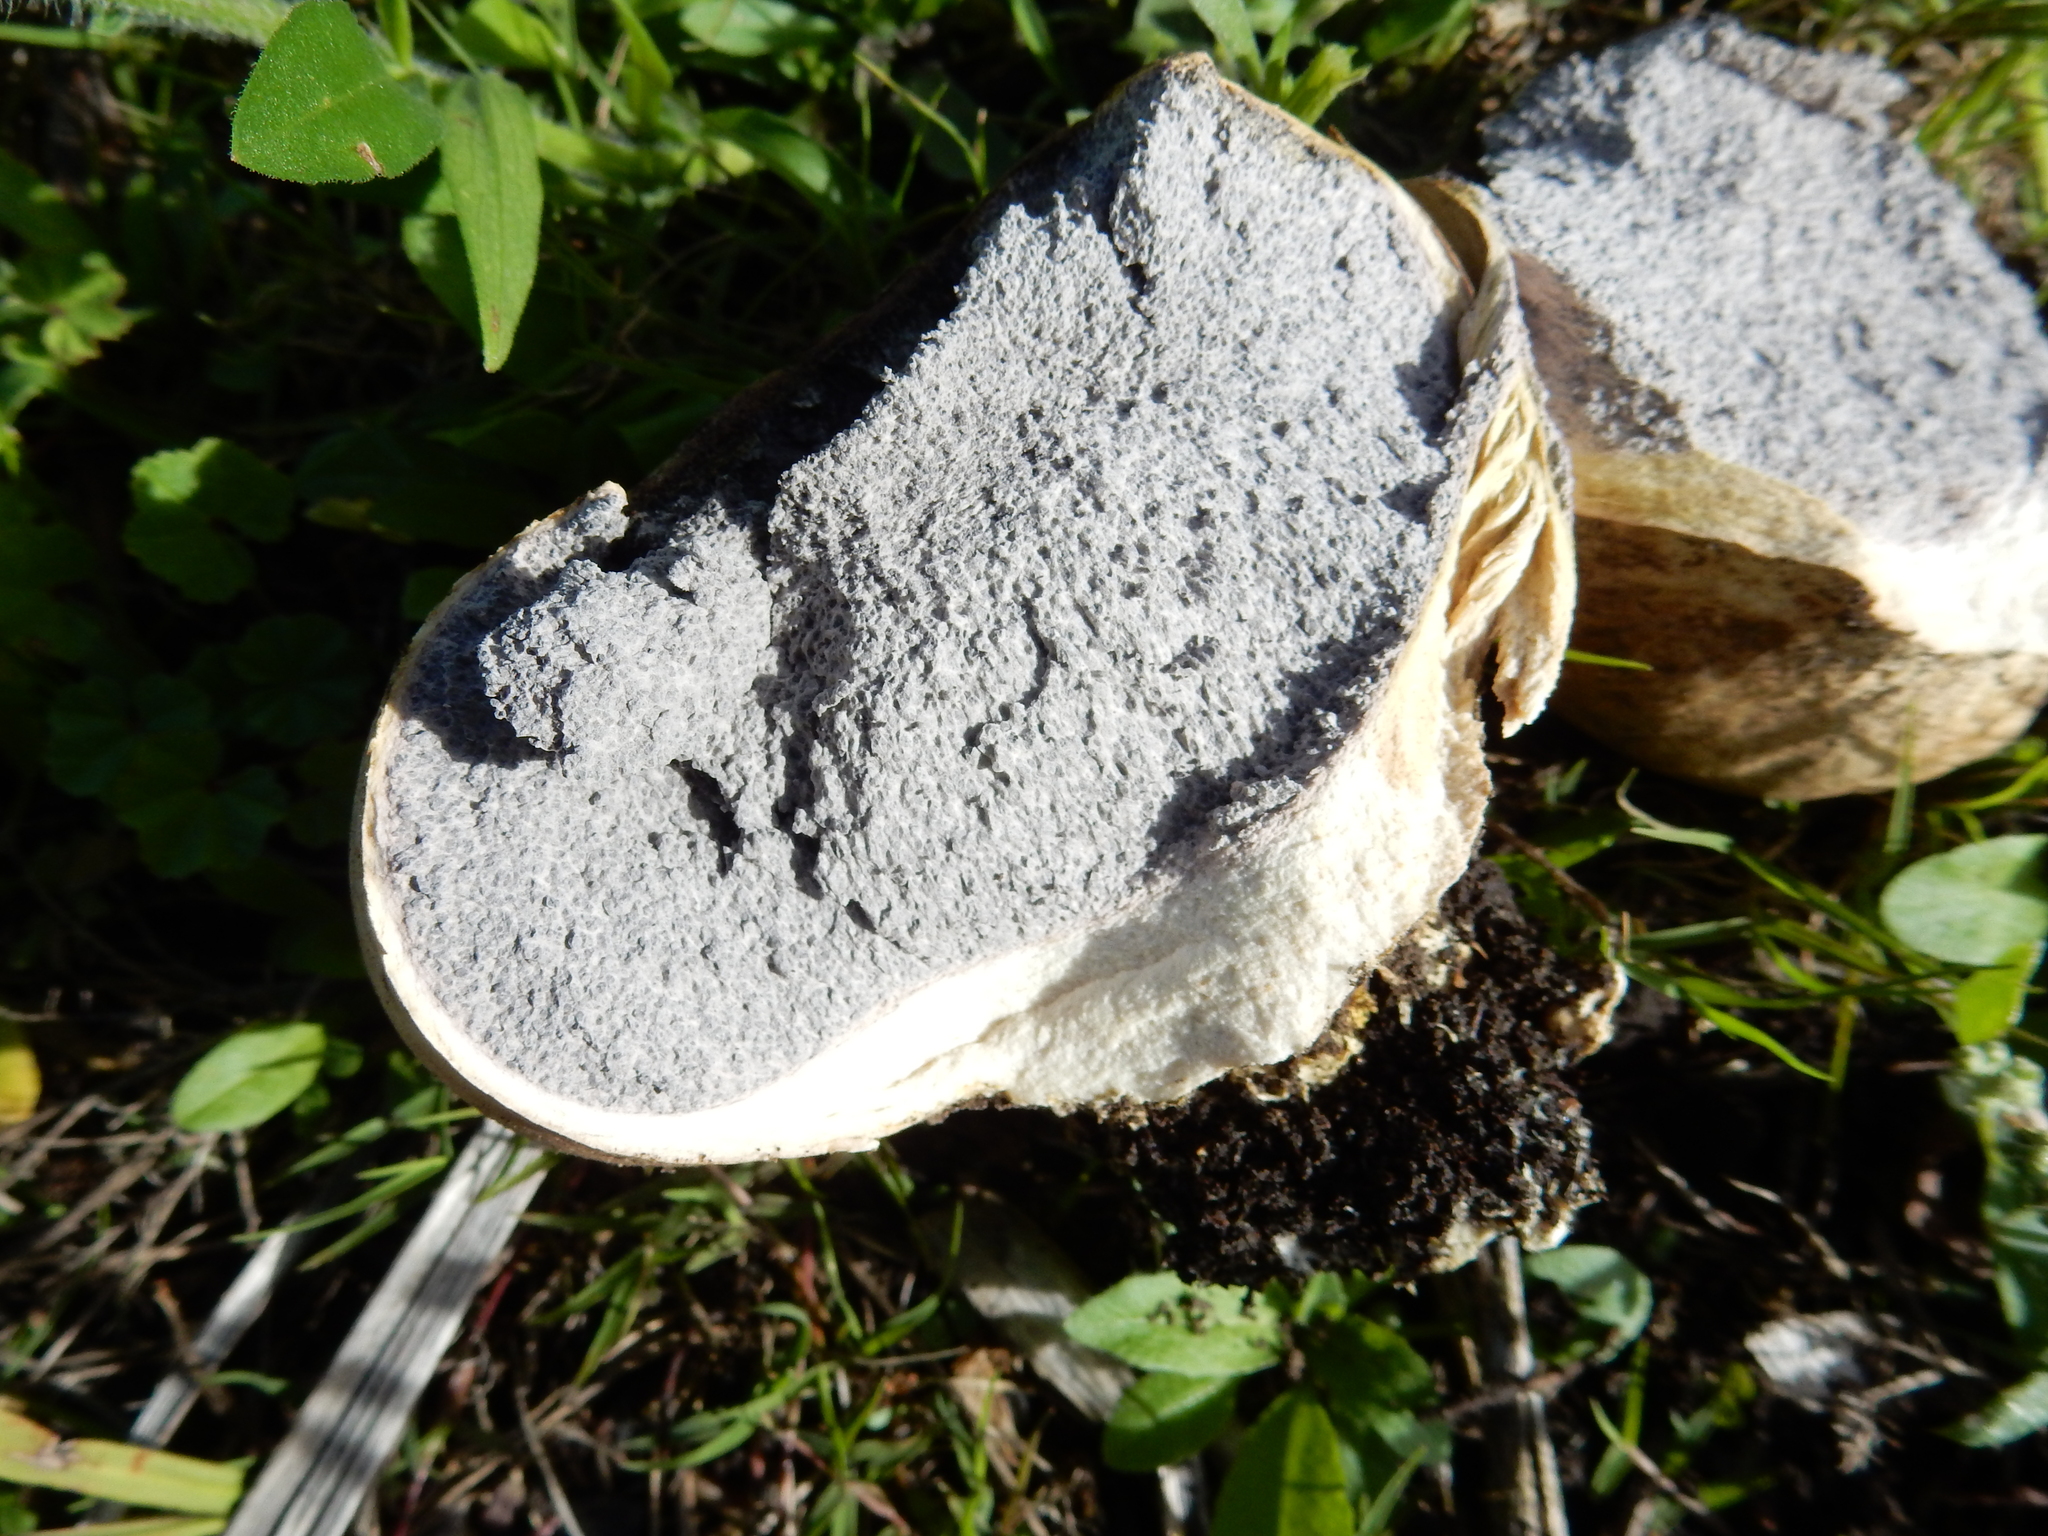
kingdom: Fungi
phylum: Basidiomycota
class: Agaricomycetes
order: Boletales
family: Sclerodermataceae
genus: Scleroderma
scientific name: Scleroderma bovista
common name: Potato earthball
